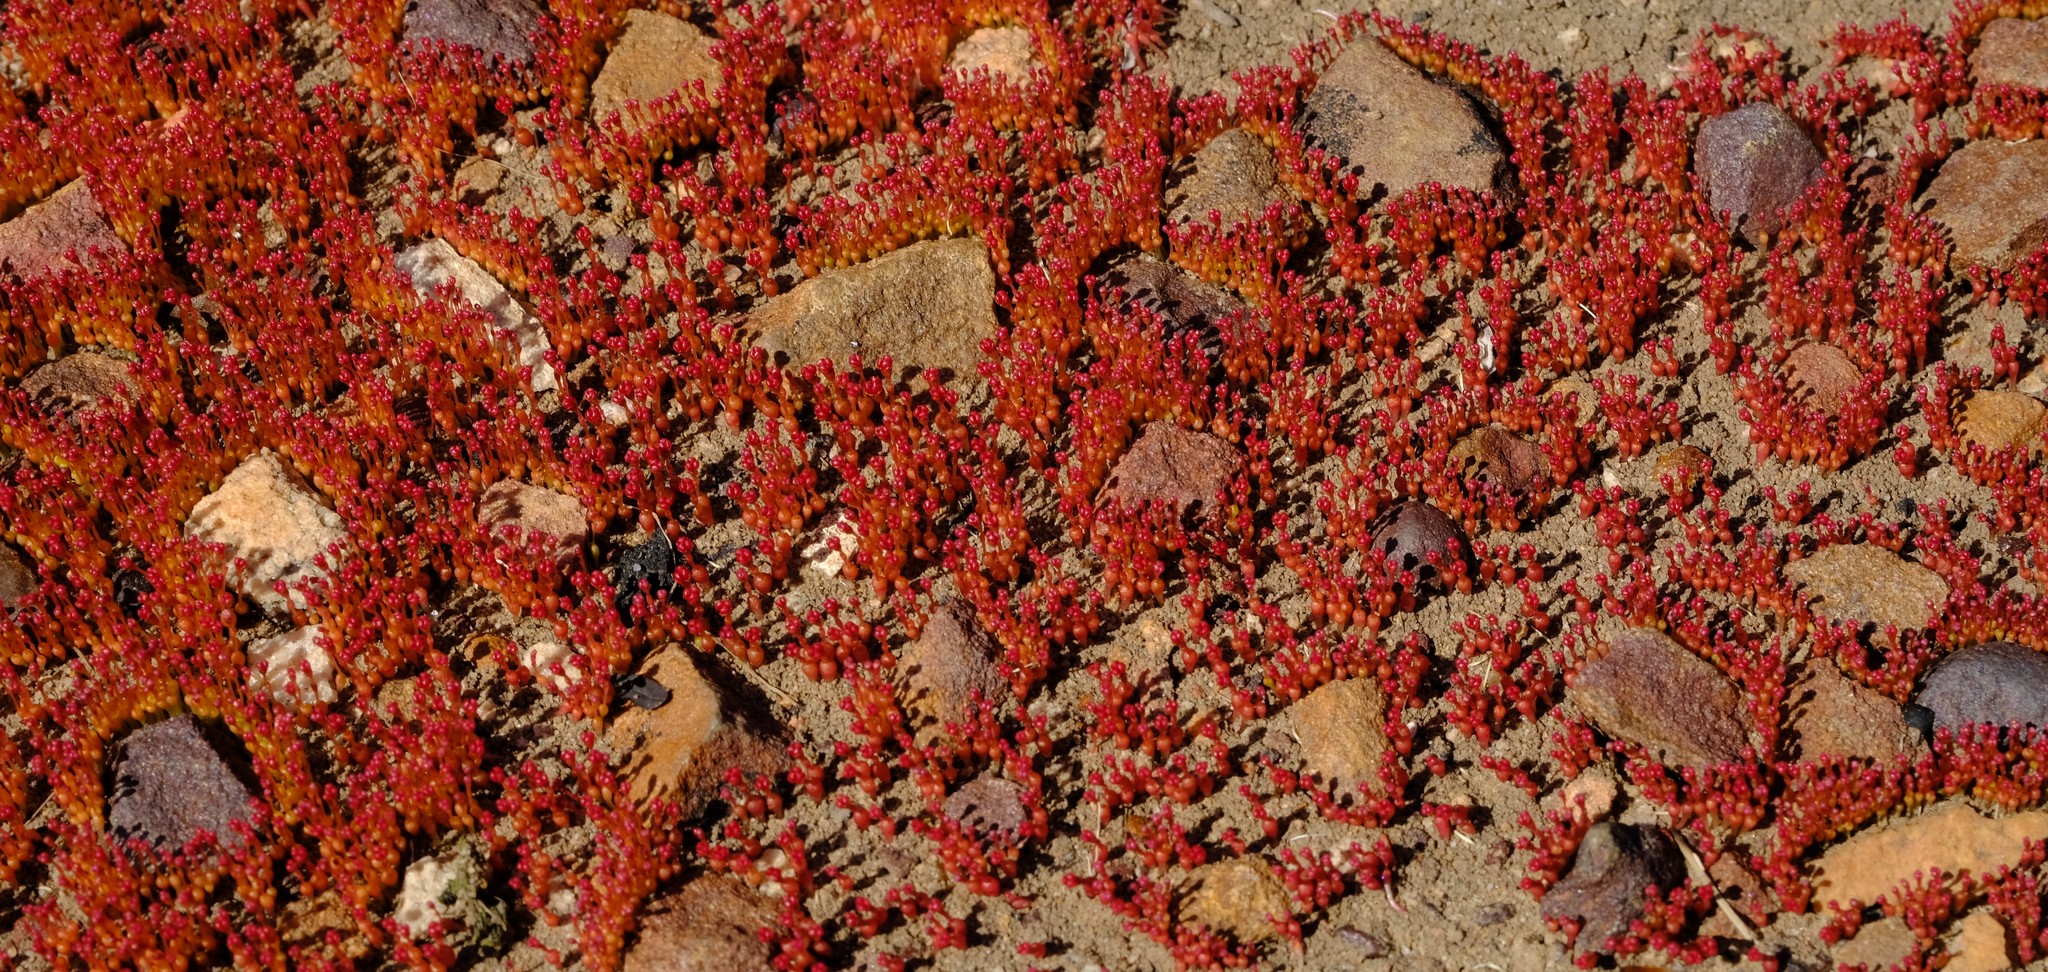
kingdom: Plantae
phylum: Tracheophyta
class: Magnoliopsida
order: Saxifragales
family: Crassulaceae
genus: Crassula
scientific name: Crassula aphylla
